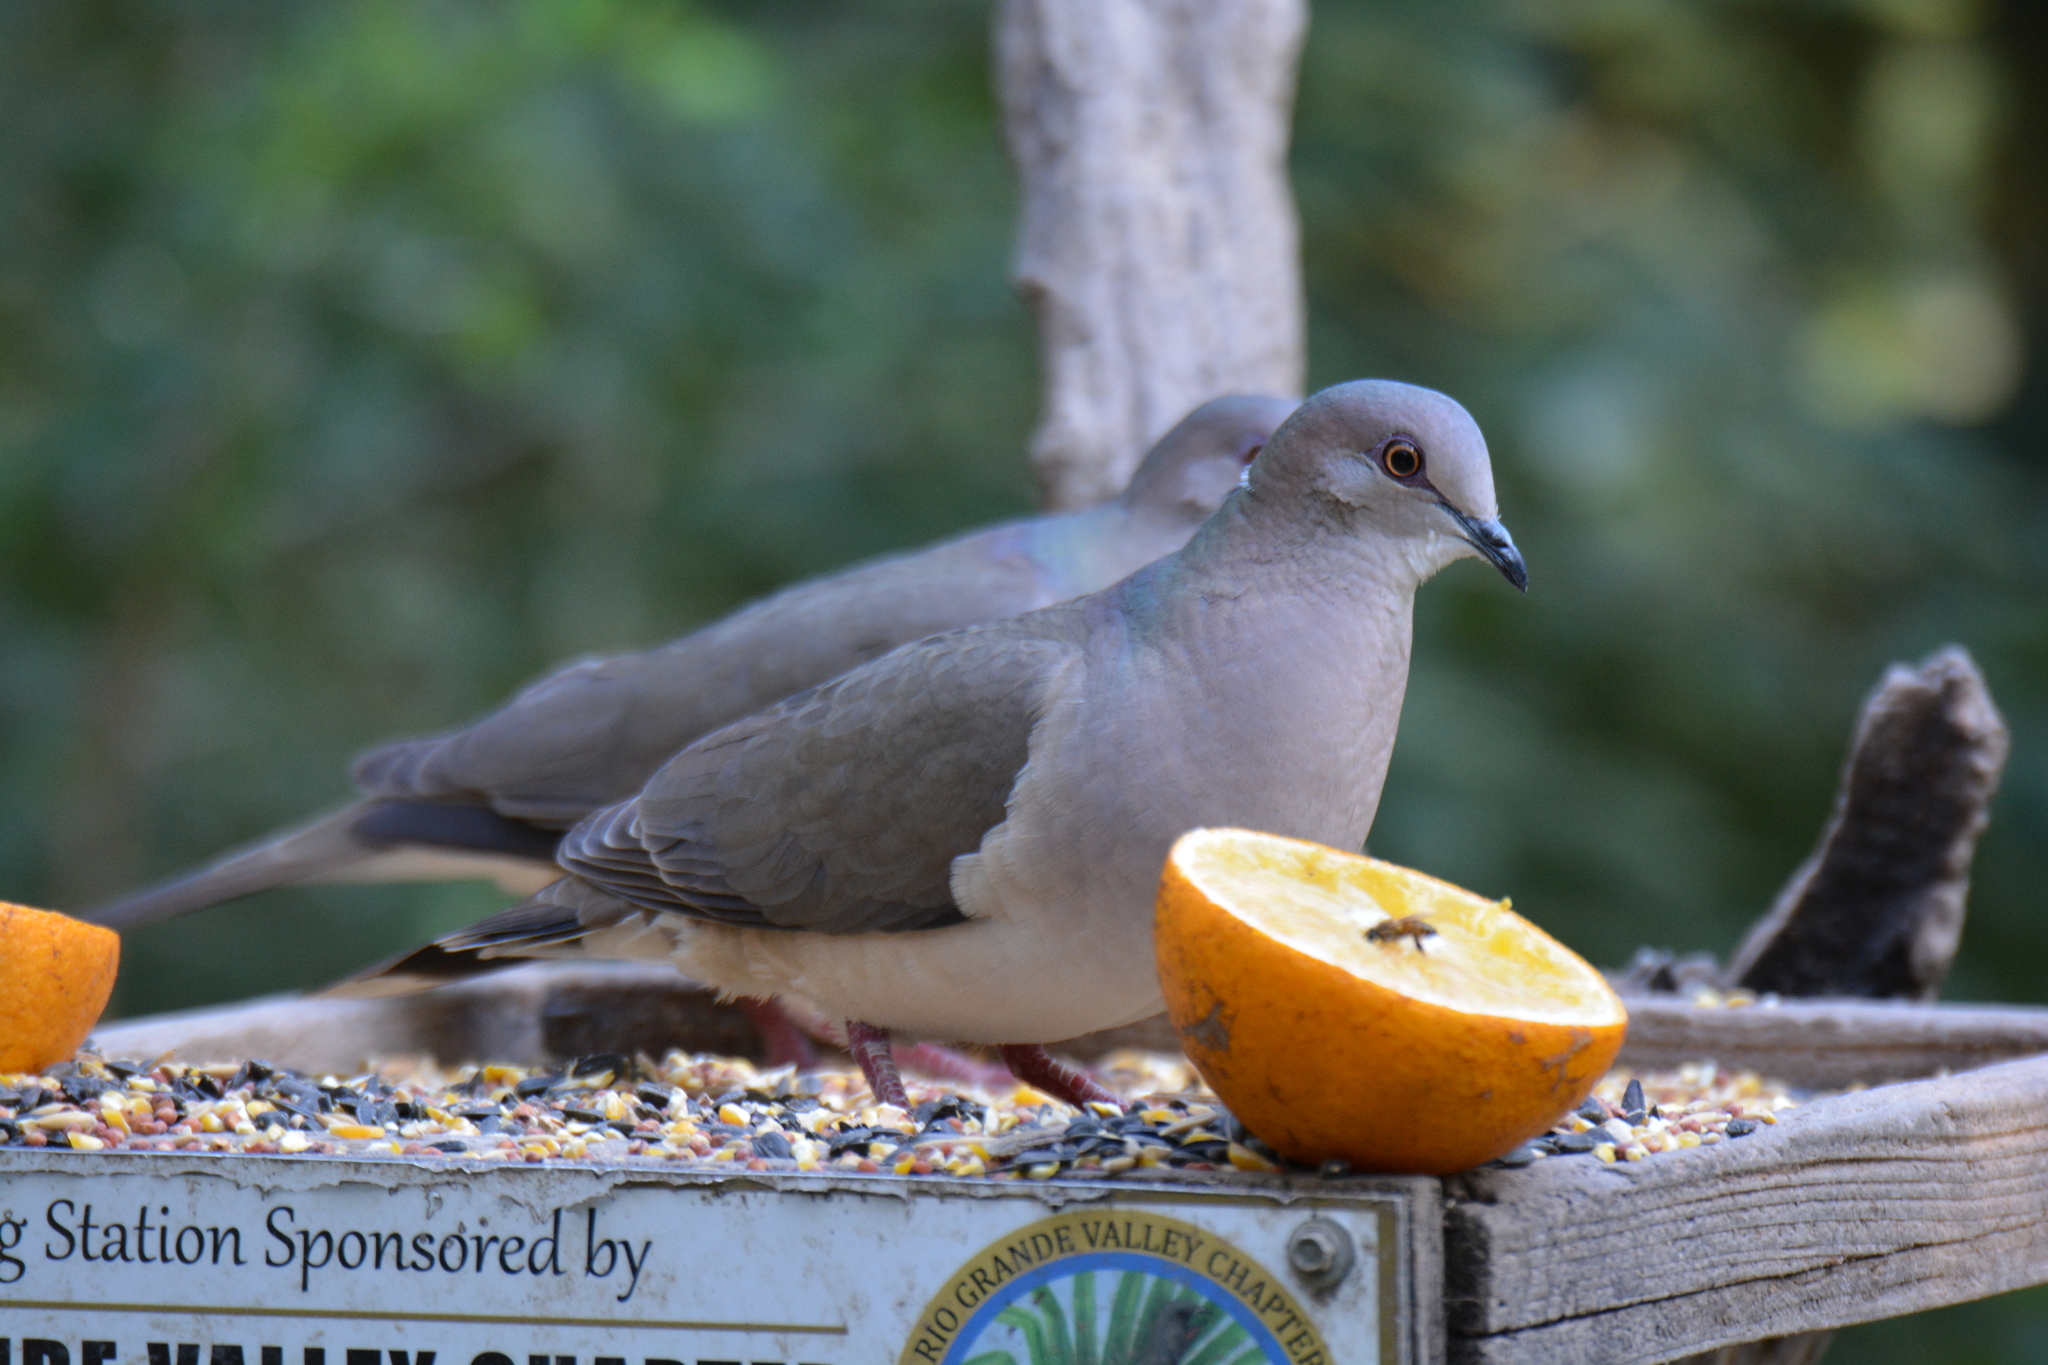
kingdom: Animalia
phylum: Chordata
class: Aves
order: Columbiformes
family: Columbidae
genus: Leptotila
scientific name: Leptotila verreauxi
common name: White-tipped dove
